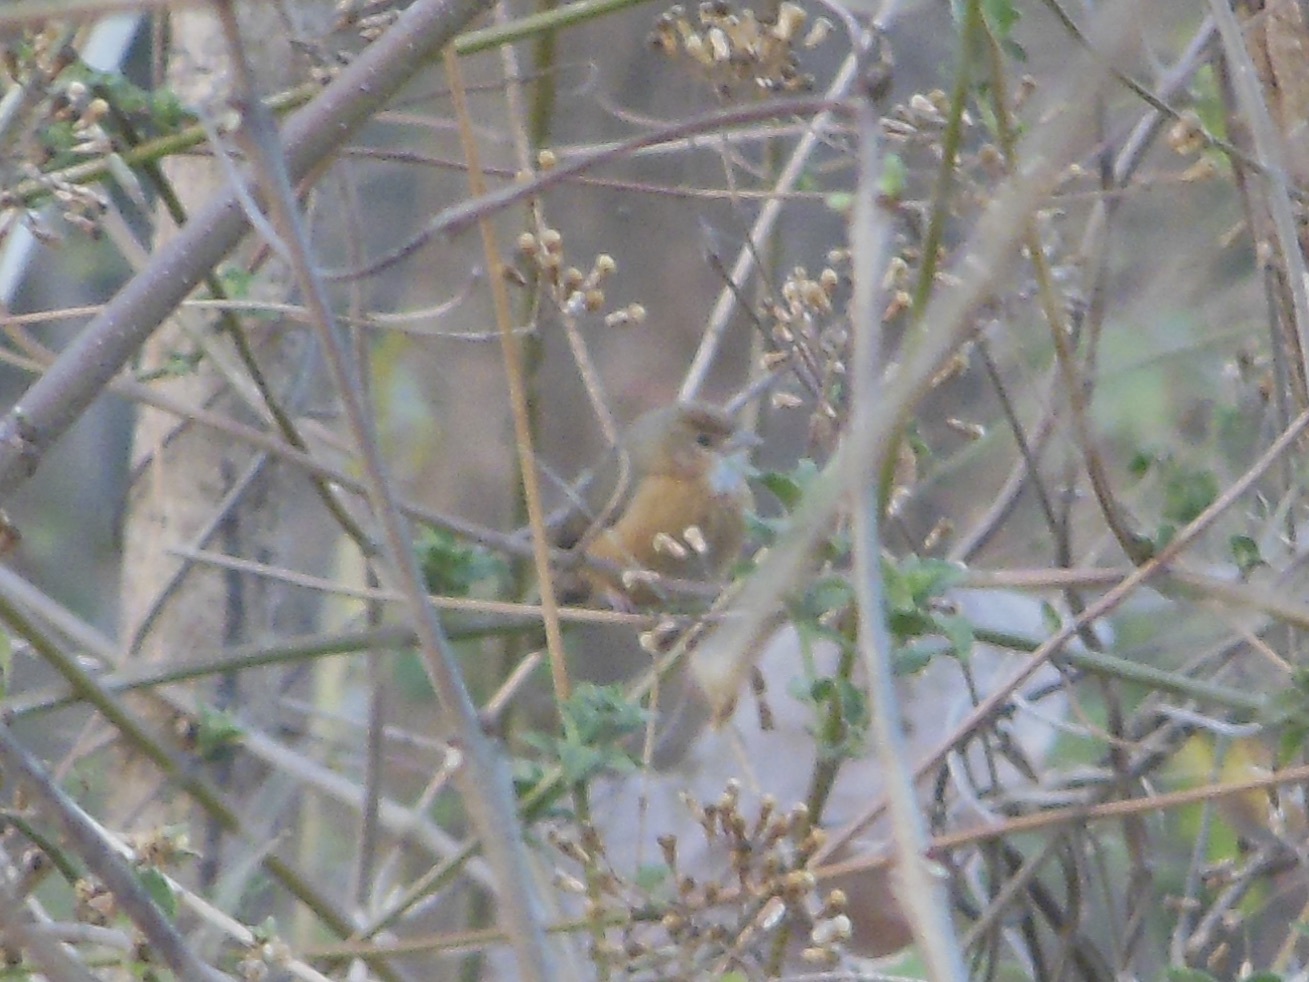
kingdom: Animalia
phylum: Chordata
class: Aves
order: Passeriformes
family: Timaliidae
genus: Dumetia
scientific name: Dumetia hyperythra
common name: Tawny-bellied babbler
